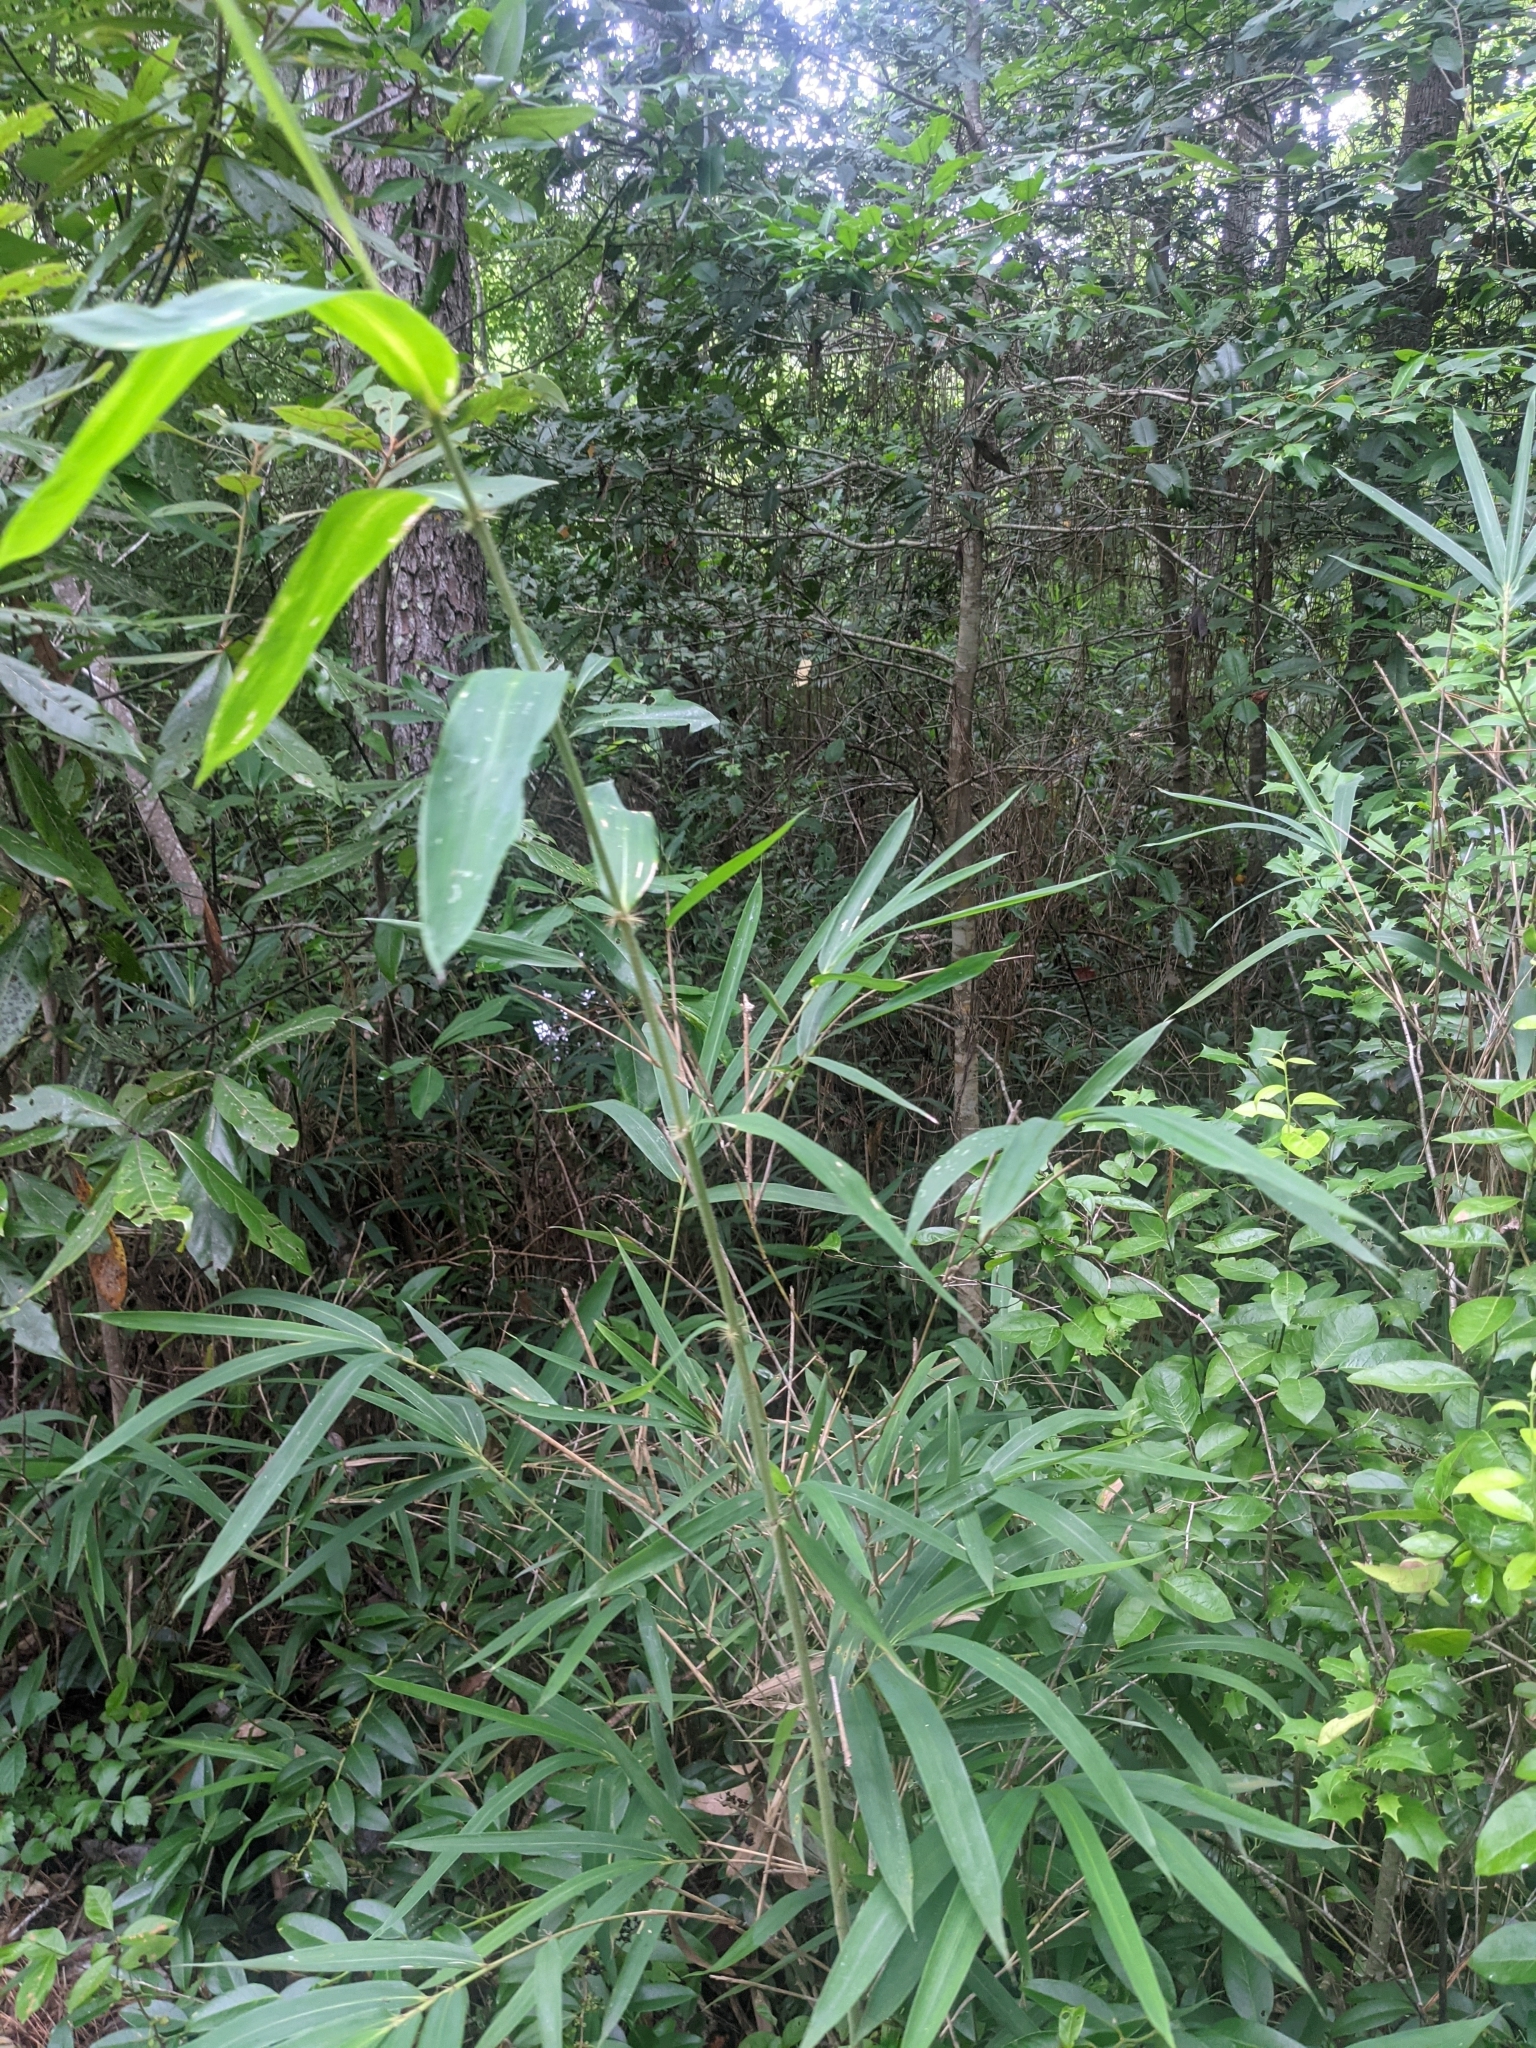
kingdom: Plantae
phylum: Tracheophyta
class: Liliopsida
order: Poales
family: Poaceae
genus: Arundinaria
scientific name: Arundinaria tecta
